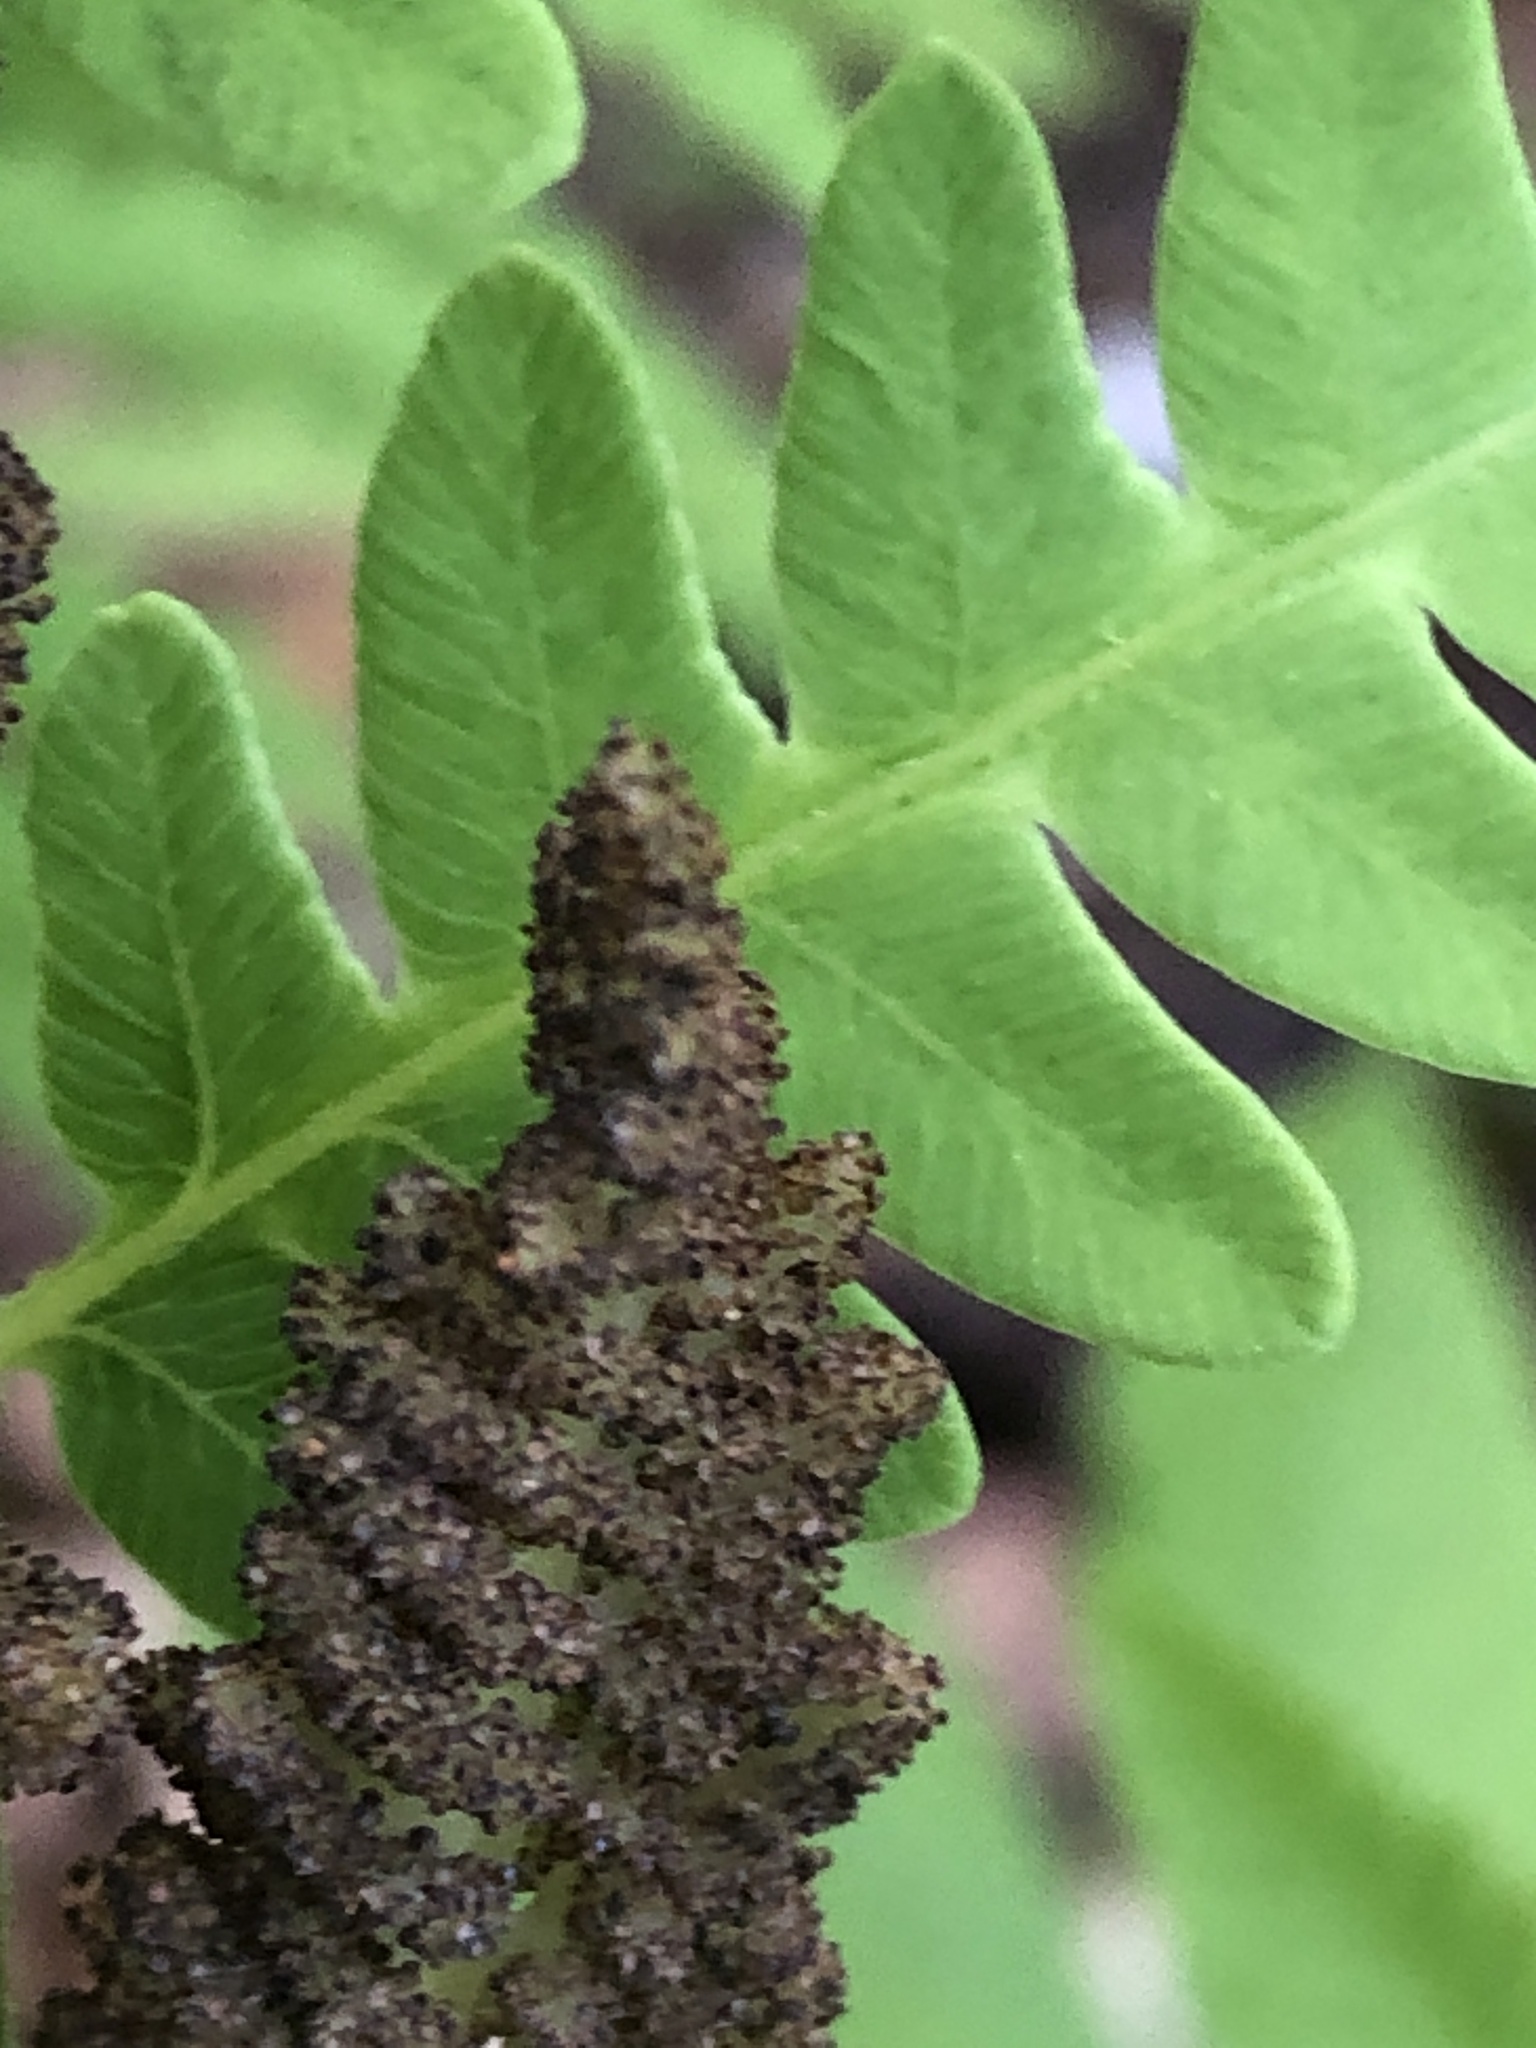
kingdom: Plantae
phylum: Tracheophyta
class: Polypodiopsida
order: Osmundales
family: Osmundaceae
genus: Claytosmunda
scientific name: Claytosmunda claytoniana
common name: Clayton's fern
